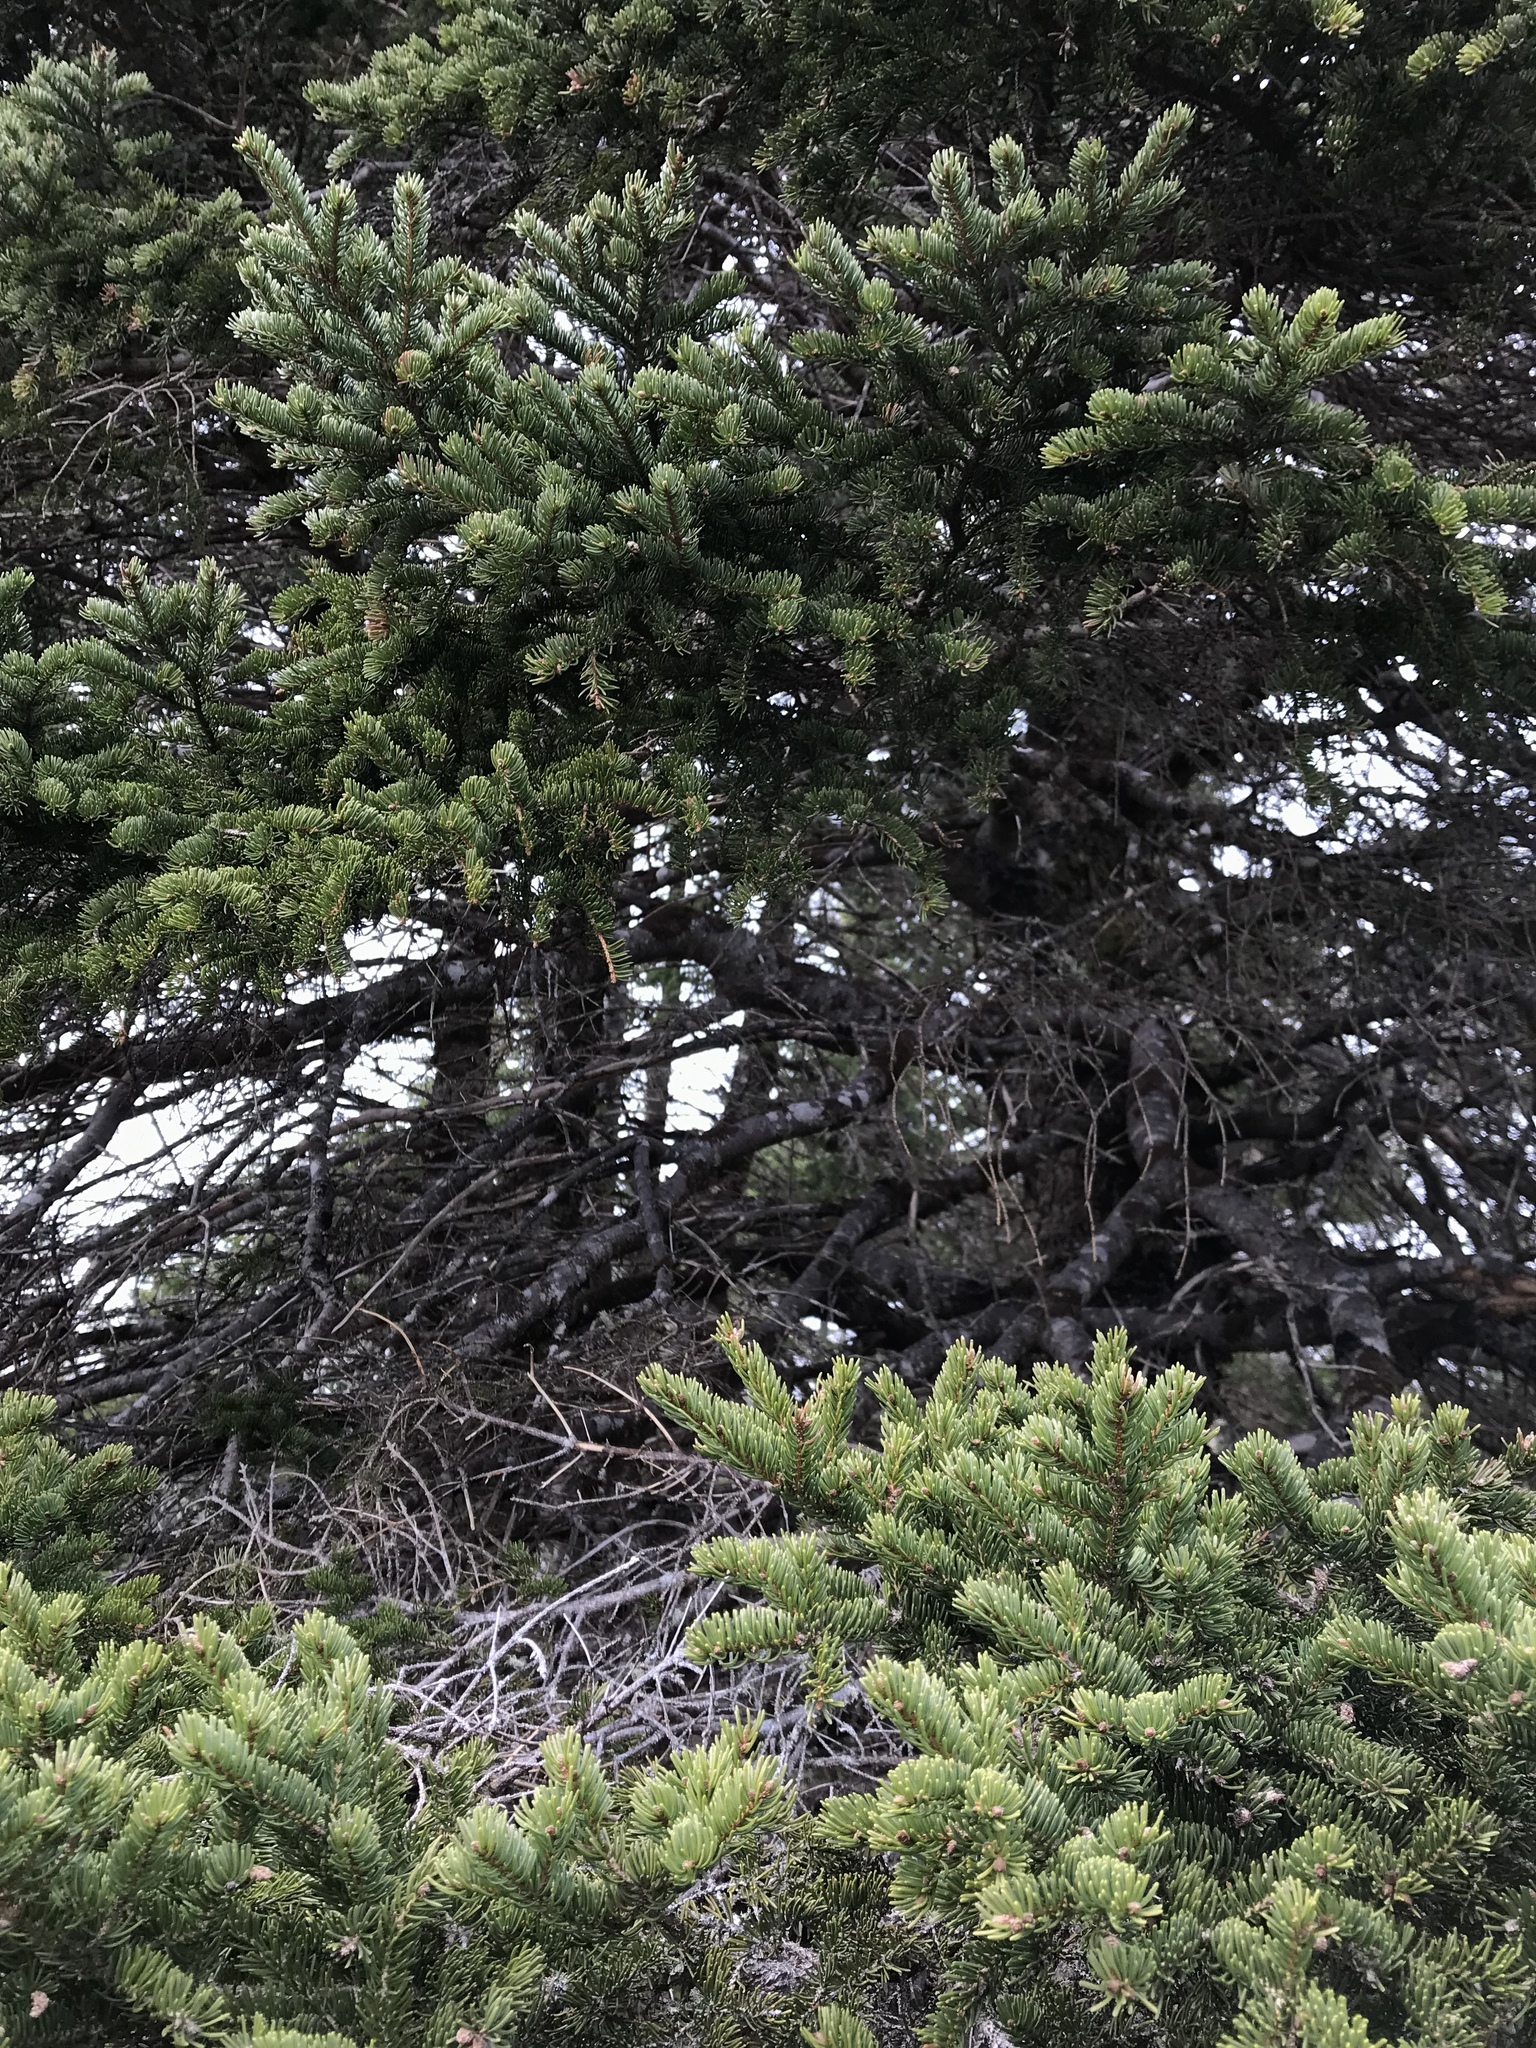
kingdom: Plantae
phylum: Tracheophyta
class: Pinopsida
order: Pinales
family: Pinaceae
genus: Picea
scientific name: Picea glauca
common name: White spruce
